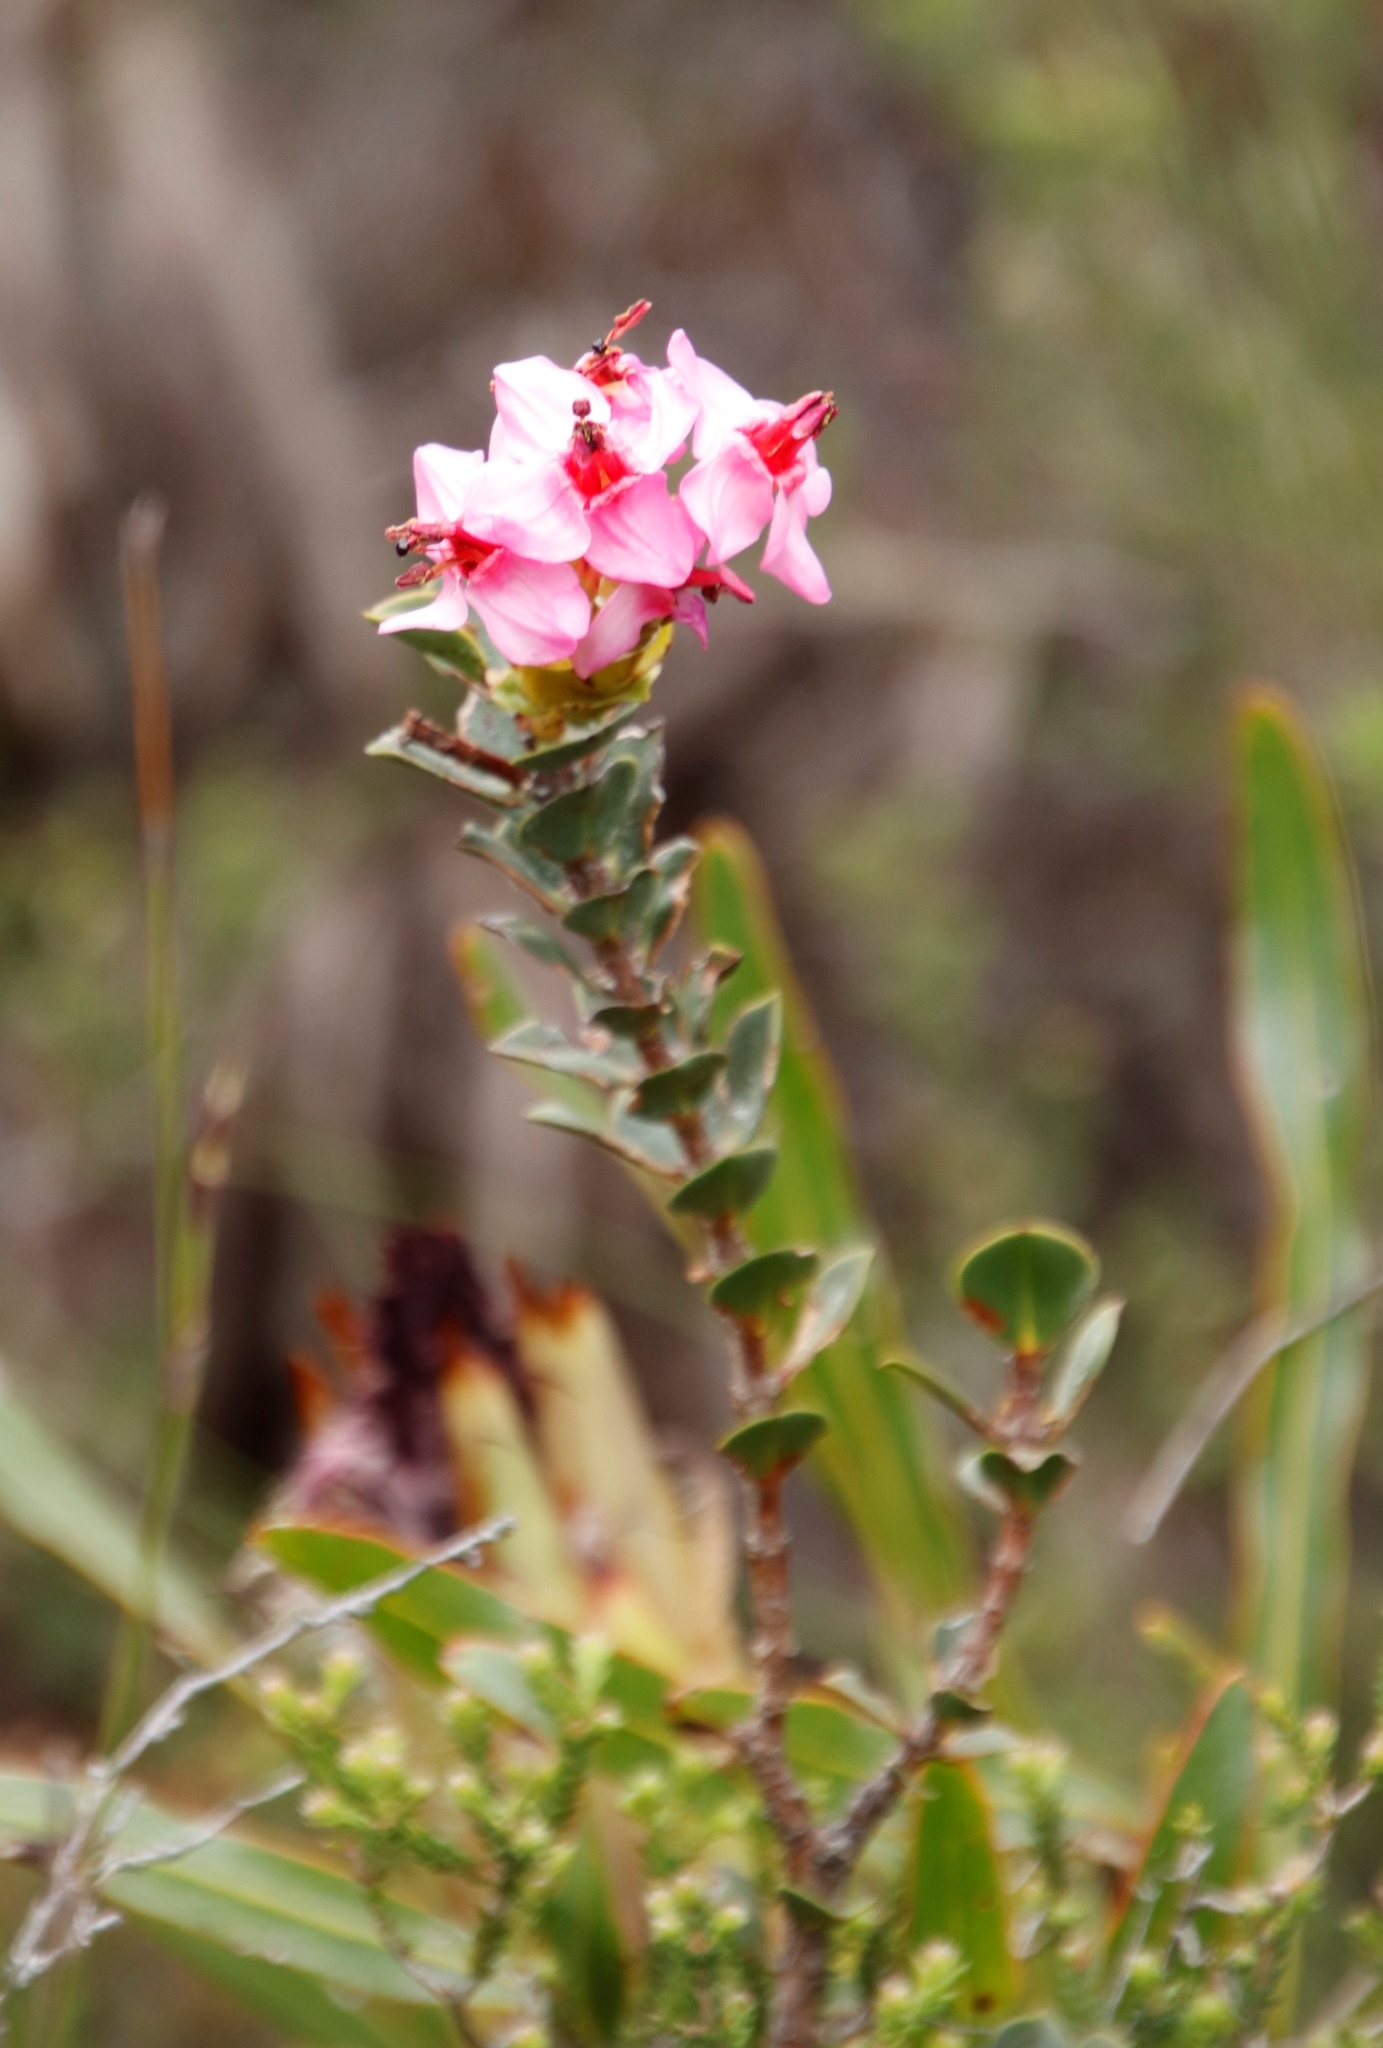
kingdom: Plantae
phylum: Tracheophyta
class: Magnoliopsida
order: Myrtales
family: Penaeaceae
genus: Saltera
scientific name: Saltera sarcocolla
